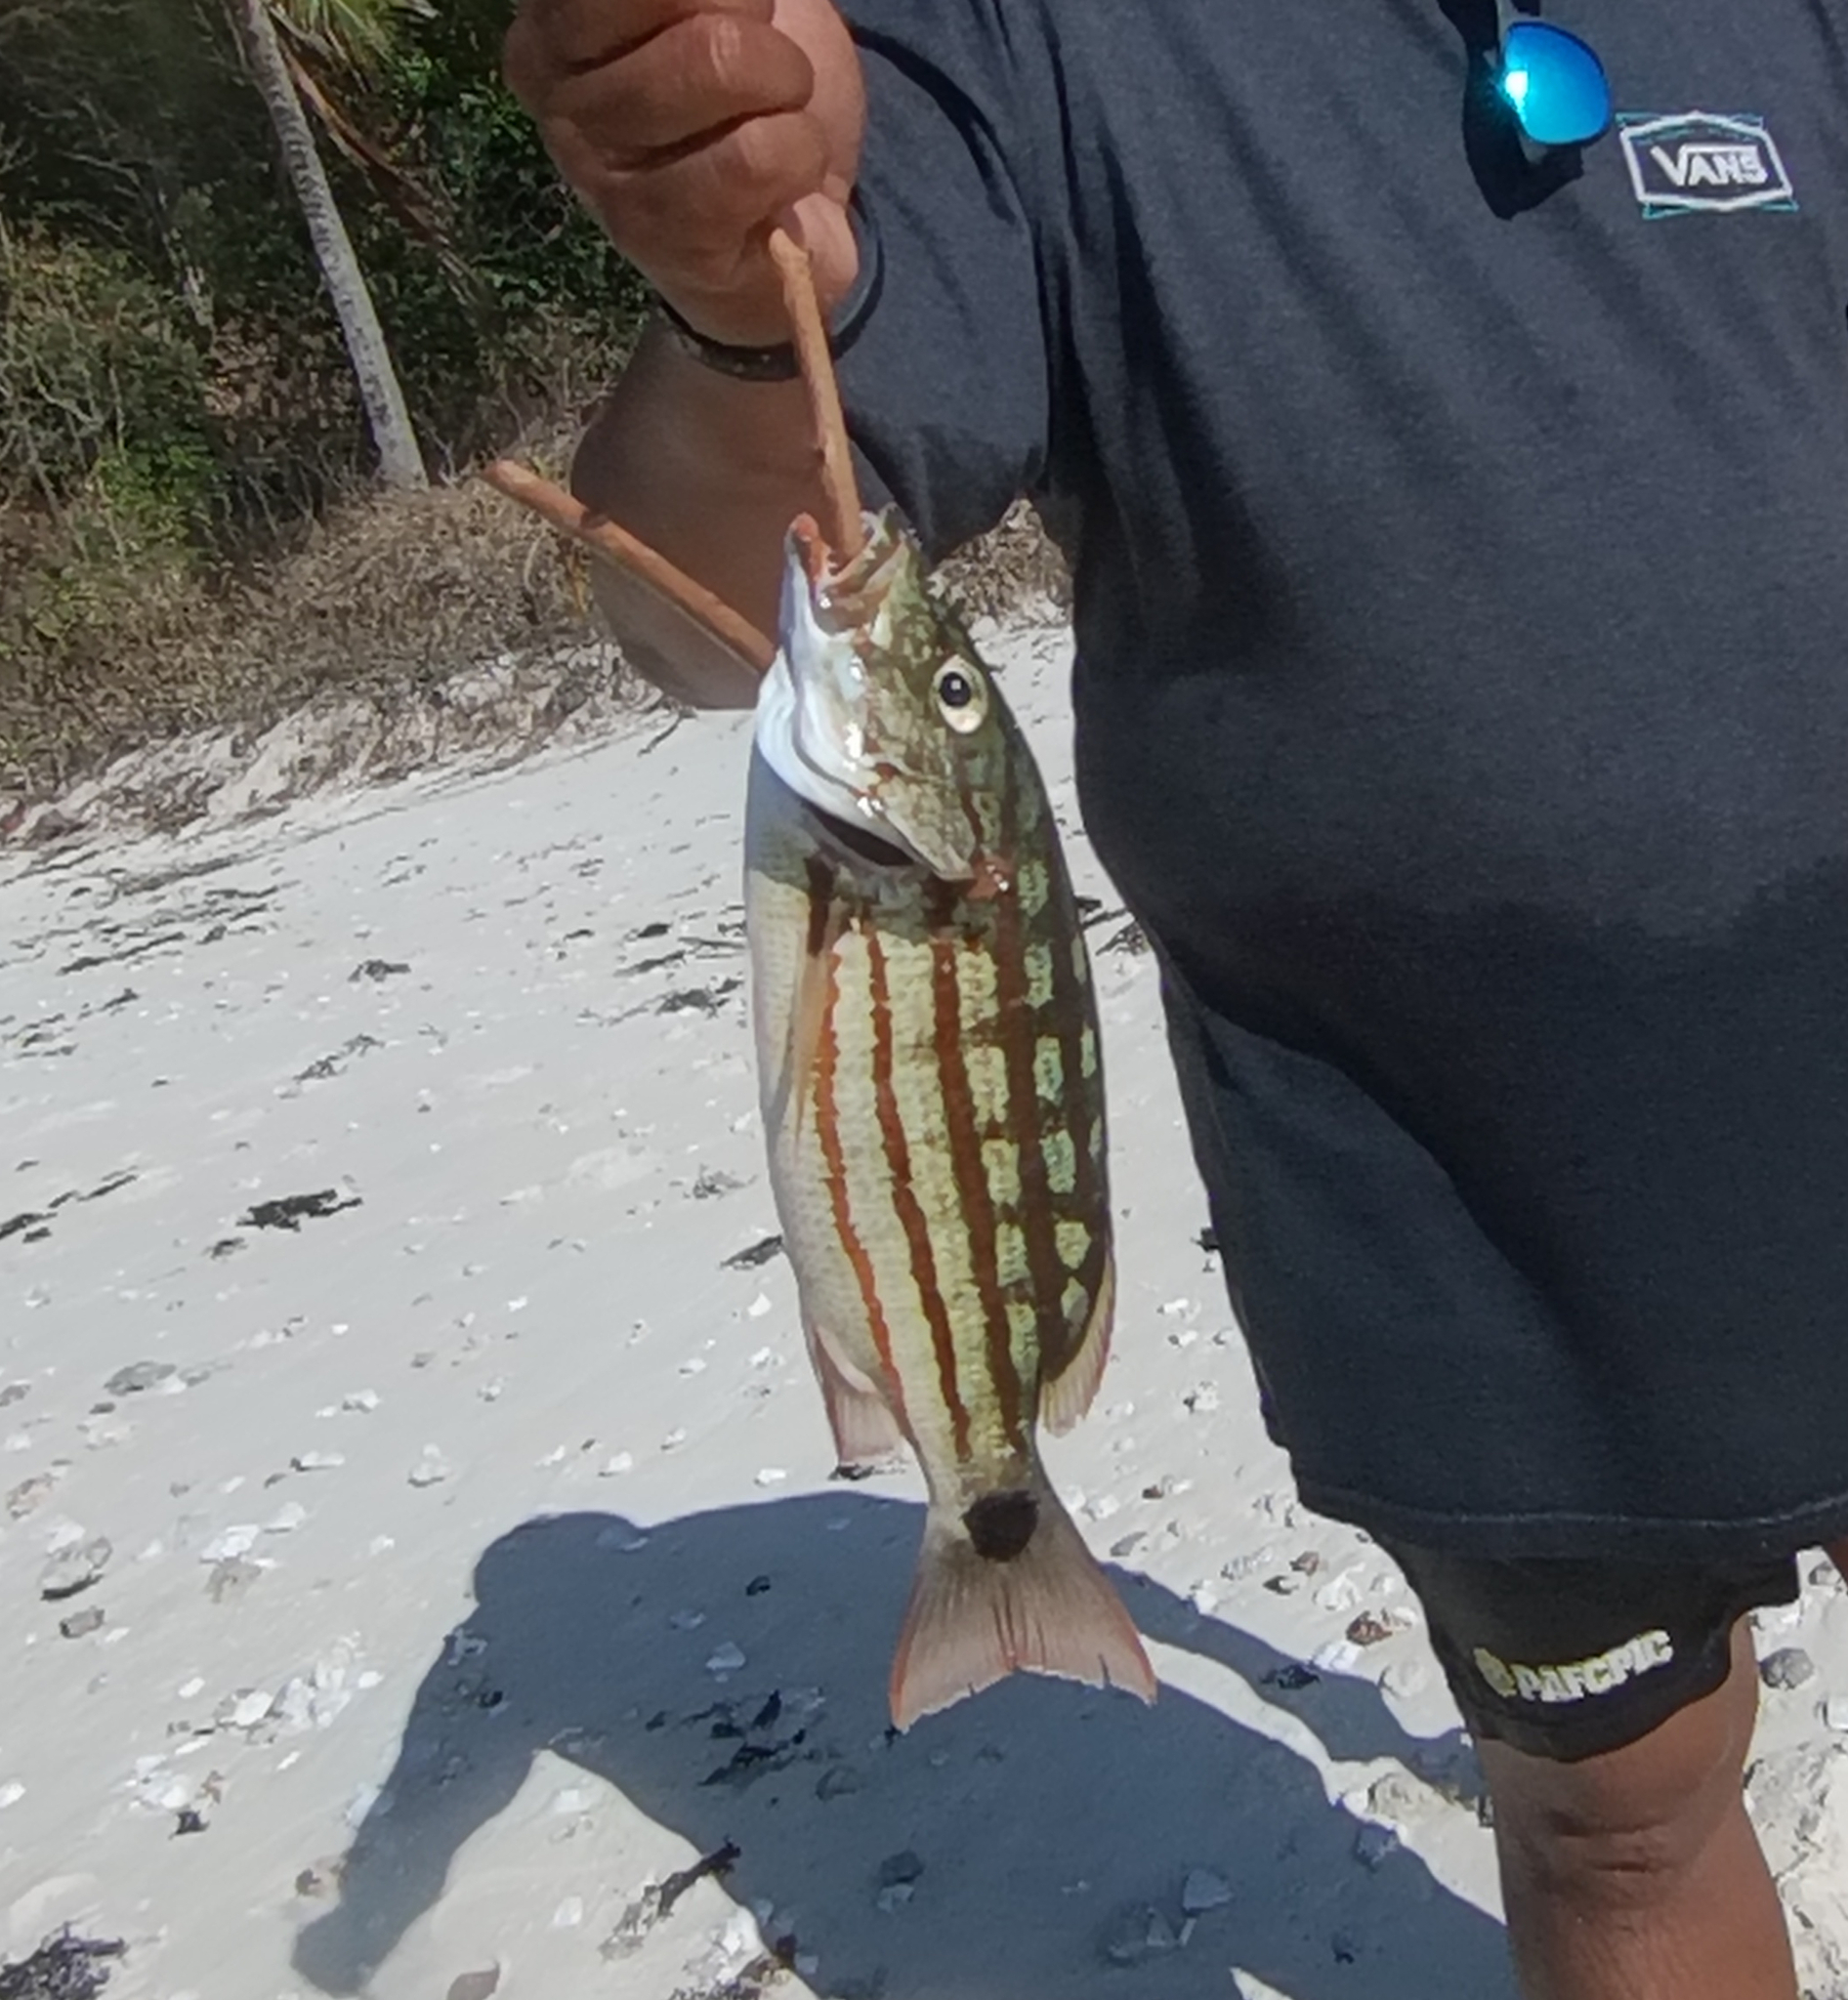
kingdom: Animalia
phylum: Chordata
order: Perciformes
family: Lutjanidae
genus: Lutjanus
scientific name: Lutjanus decussatus
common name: Checkered snapper
